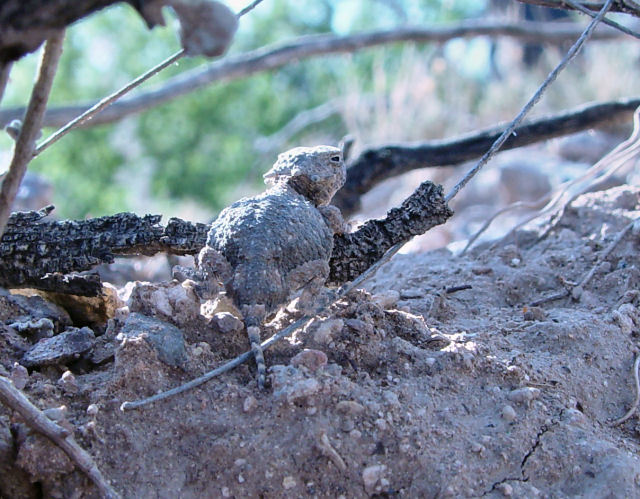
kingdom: Animalia
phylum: Chordata
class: Squamata
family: Phrynosomatidae
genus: Phrynosoma
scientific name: Phrynosoma modestum
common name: Roundtail horned lizard
